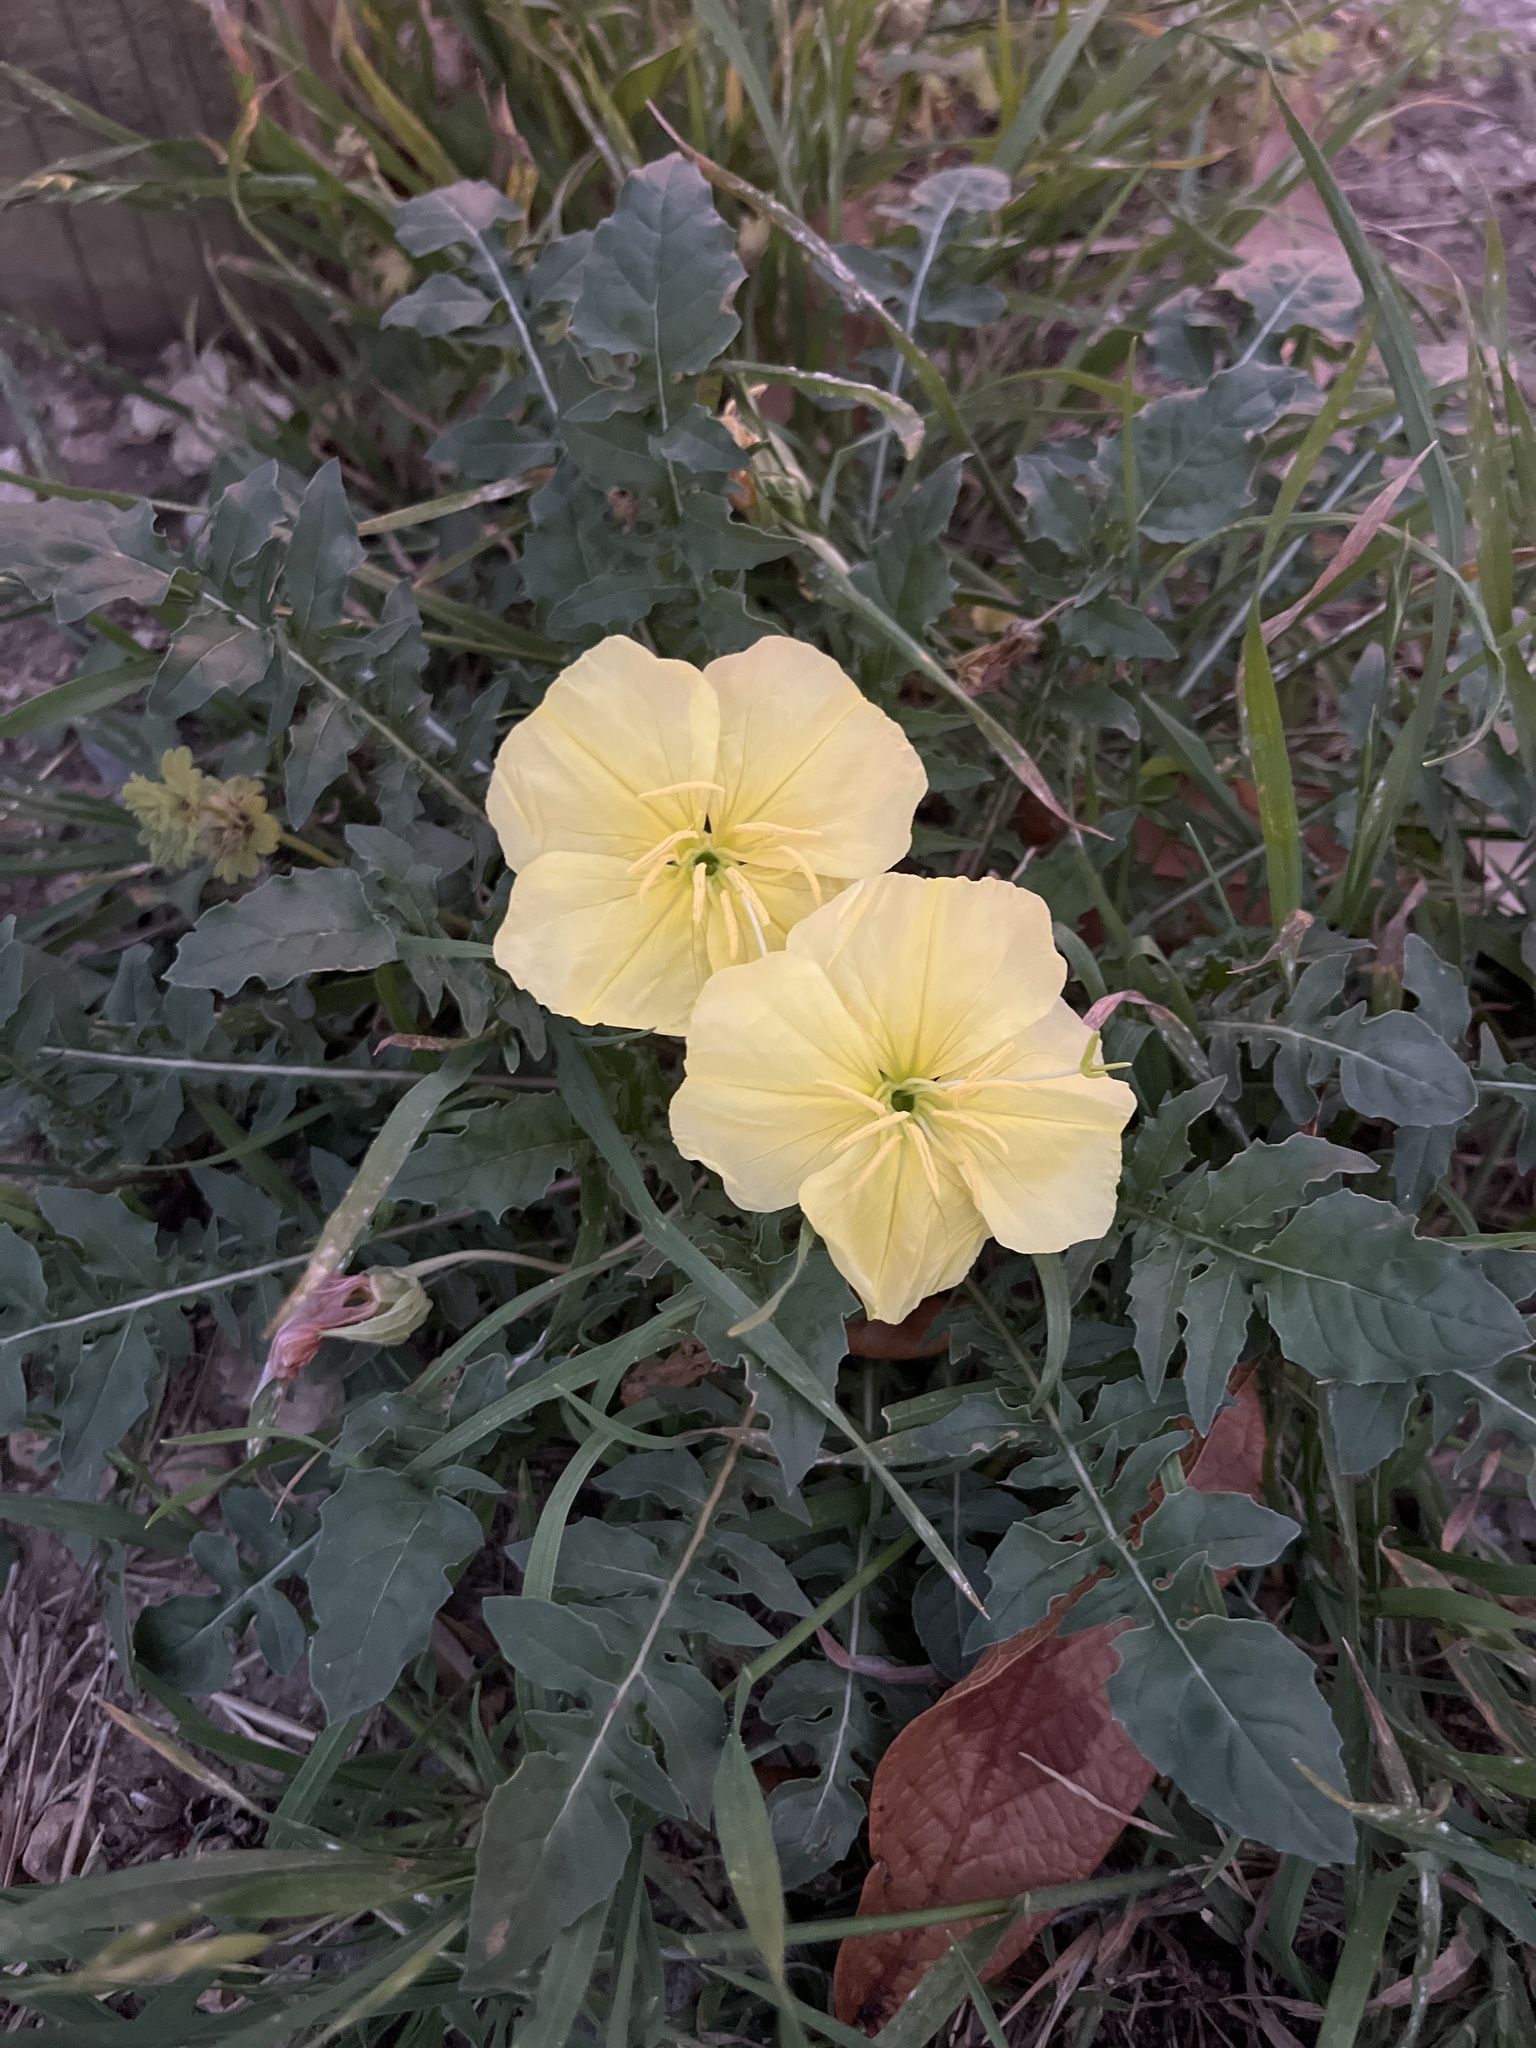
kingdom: Plantae
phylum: Tracheophyta
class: Magnoliopsida
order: Myrtales
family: Onagraceae
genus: Oenothera
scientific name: Oenothera triloba
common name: Sessile evening-primrose
